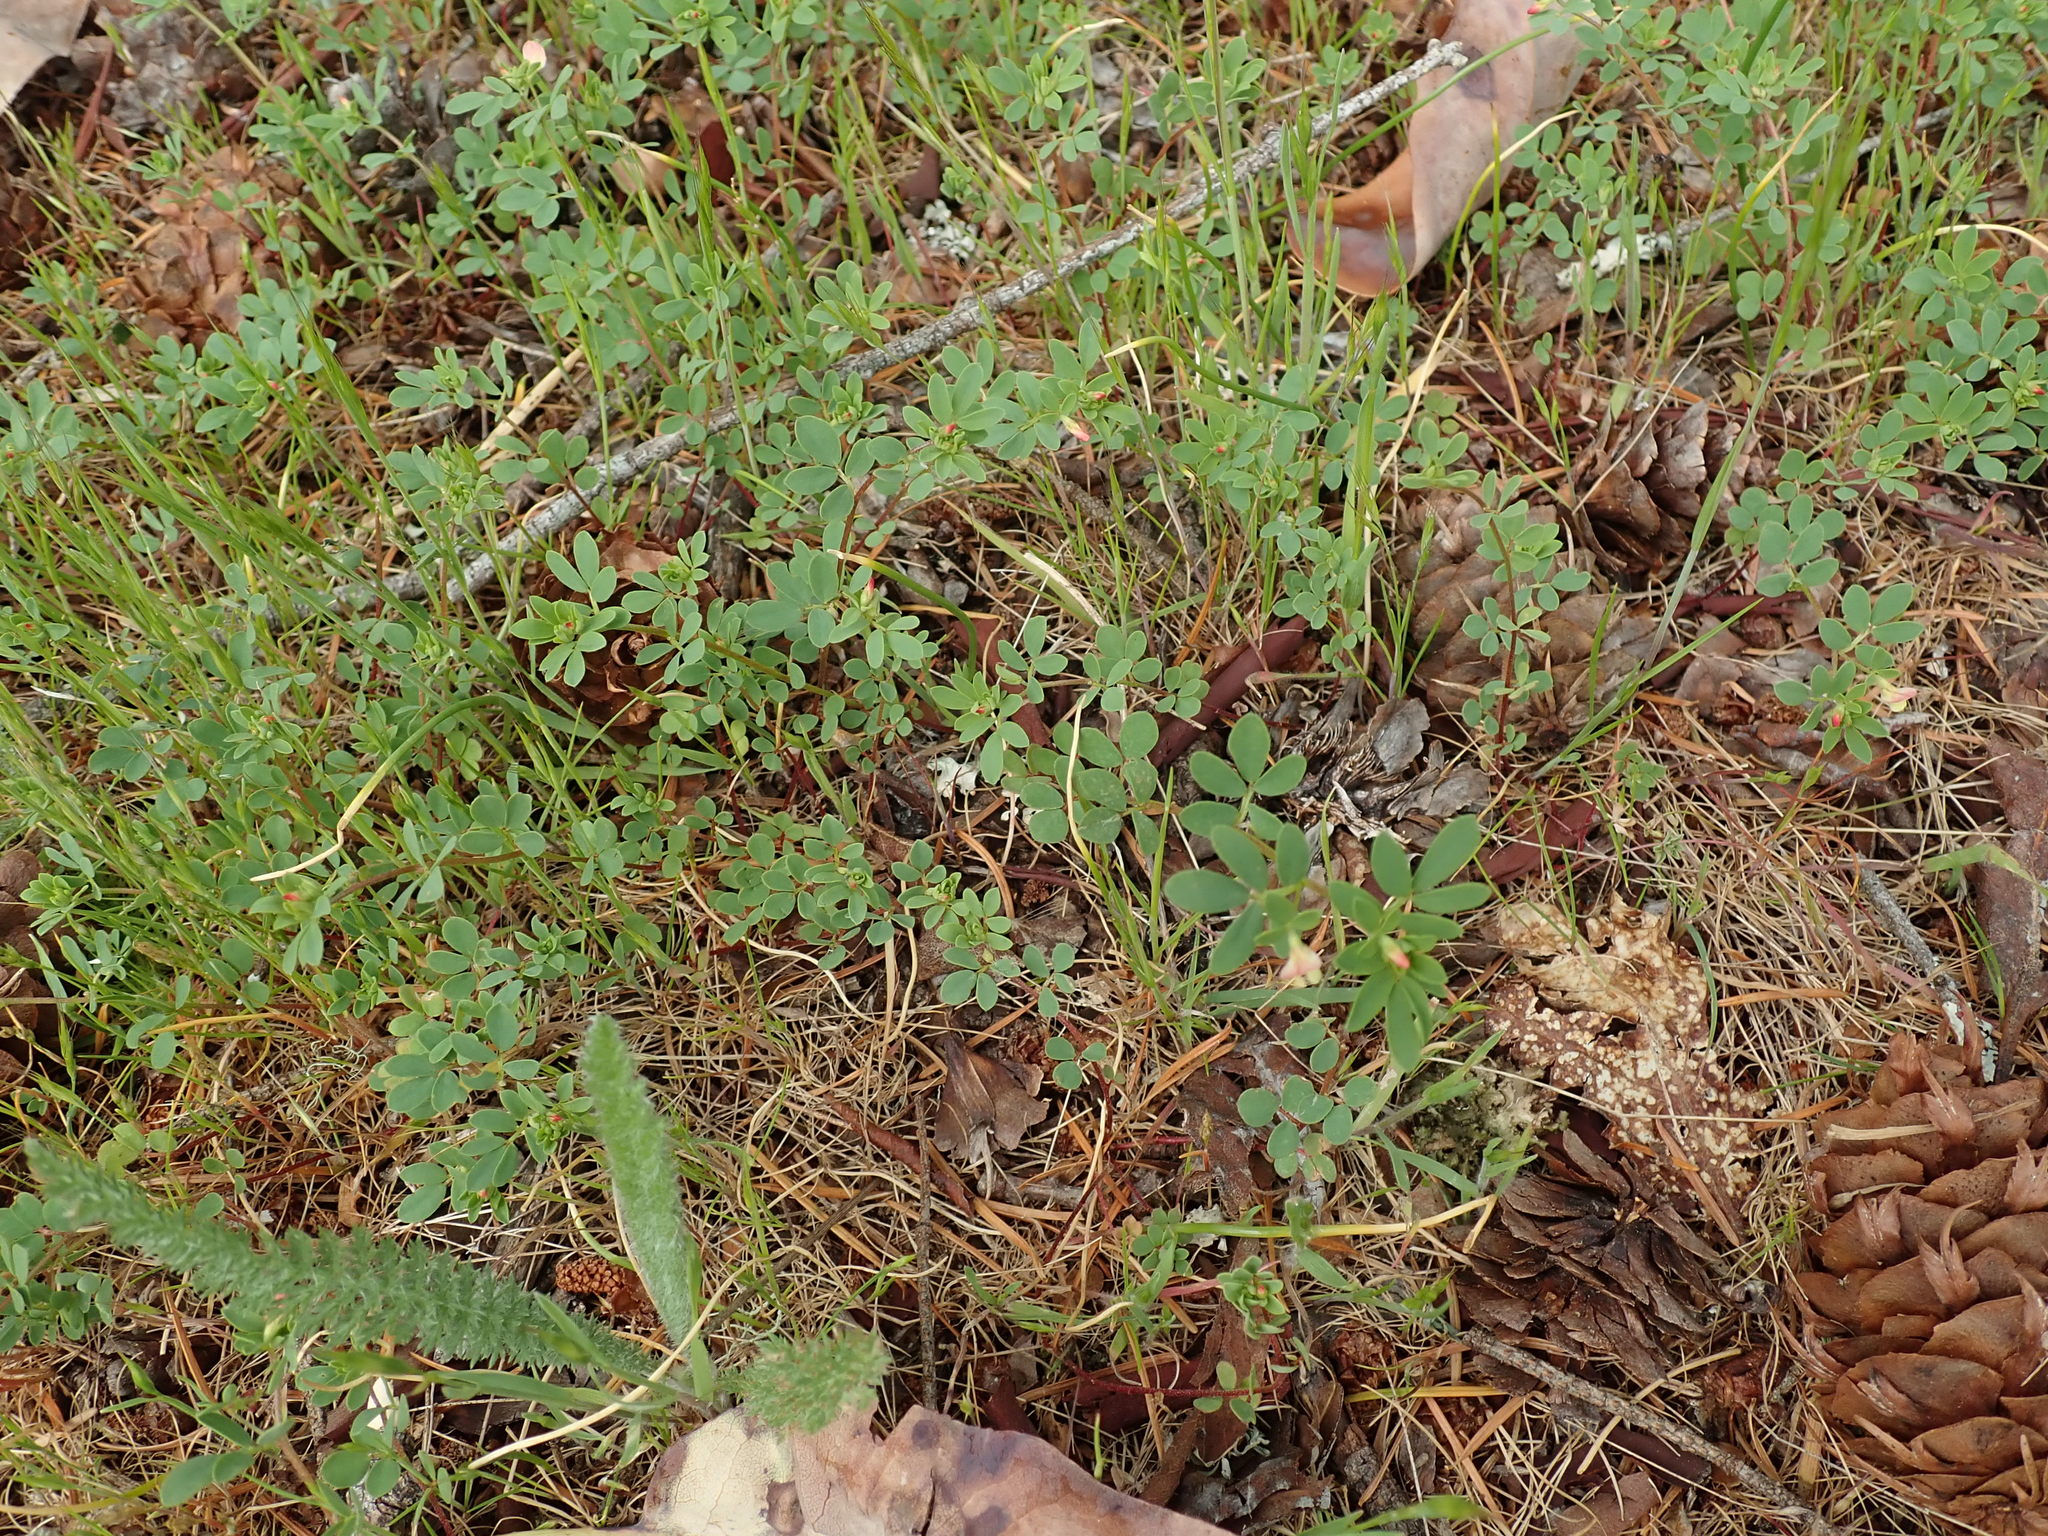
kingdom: Plantae
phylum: Tracheophyta
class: Magnoliopsida
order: Fabales
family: Fabaceae
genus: Acmispon
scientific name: Acmispon parviflorus
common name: Desert deer-vetch
